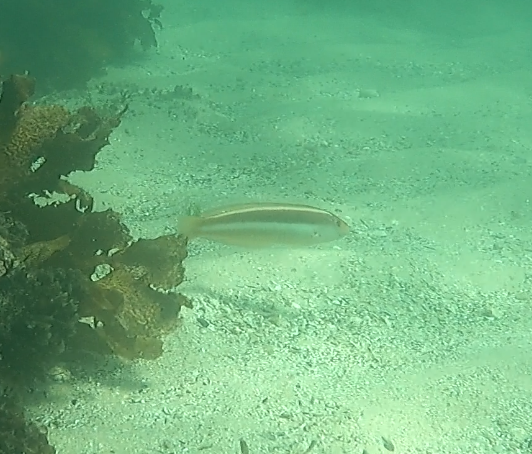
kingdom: Animalia
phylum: Chordata
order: Perciformes
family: Labridae
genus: Ophthalmolepis
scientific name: Ophthalmolepis lineolata
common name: Maori wrasse
